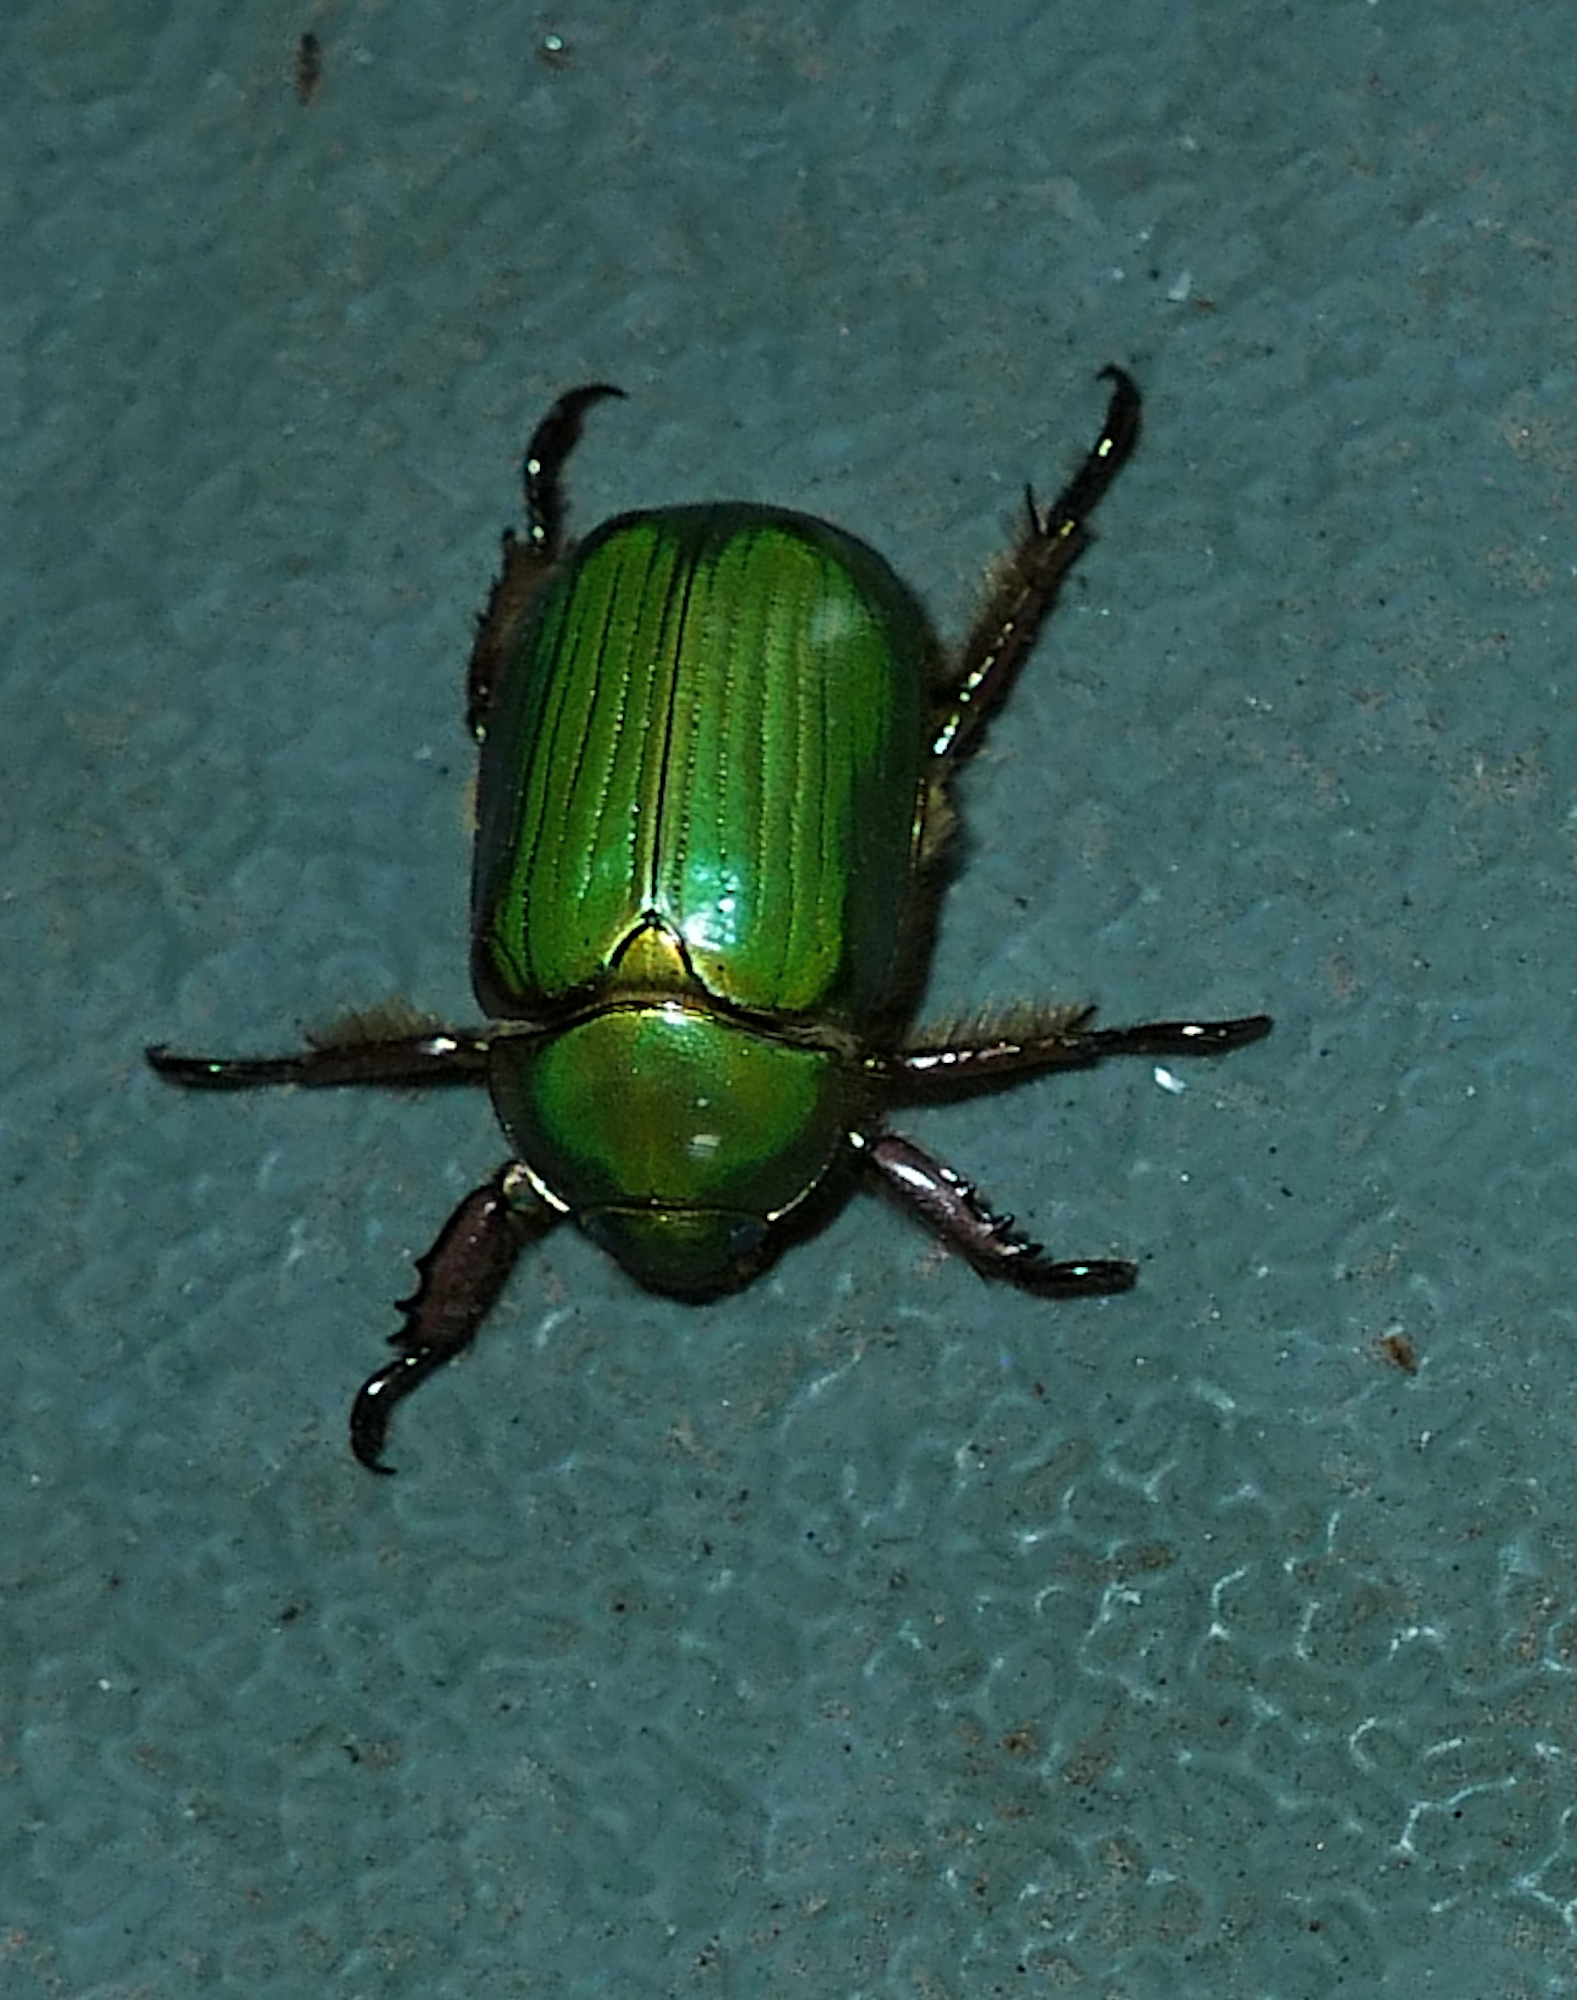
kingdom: Animalia
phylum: Arthropoda
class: Insecta
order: Coleoptera
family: Scarabaeidae
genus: Chrysina
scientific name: Chrysina lecontei
